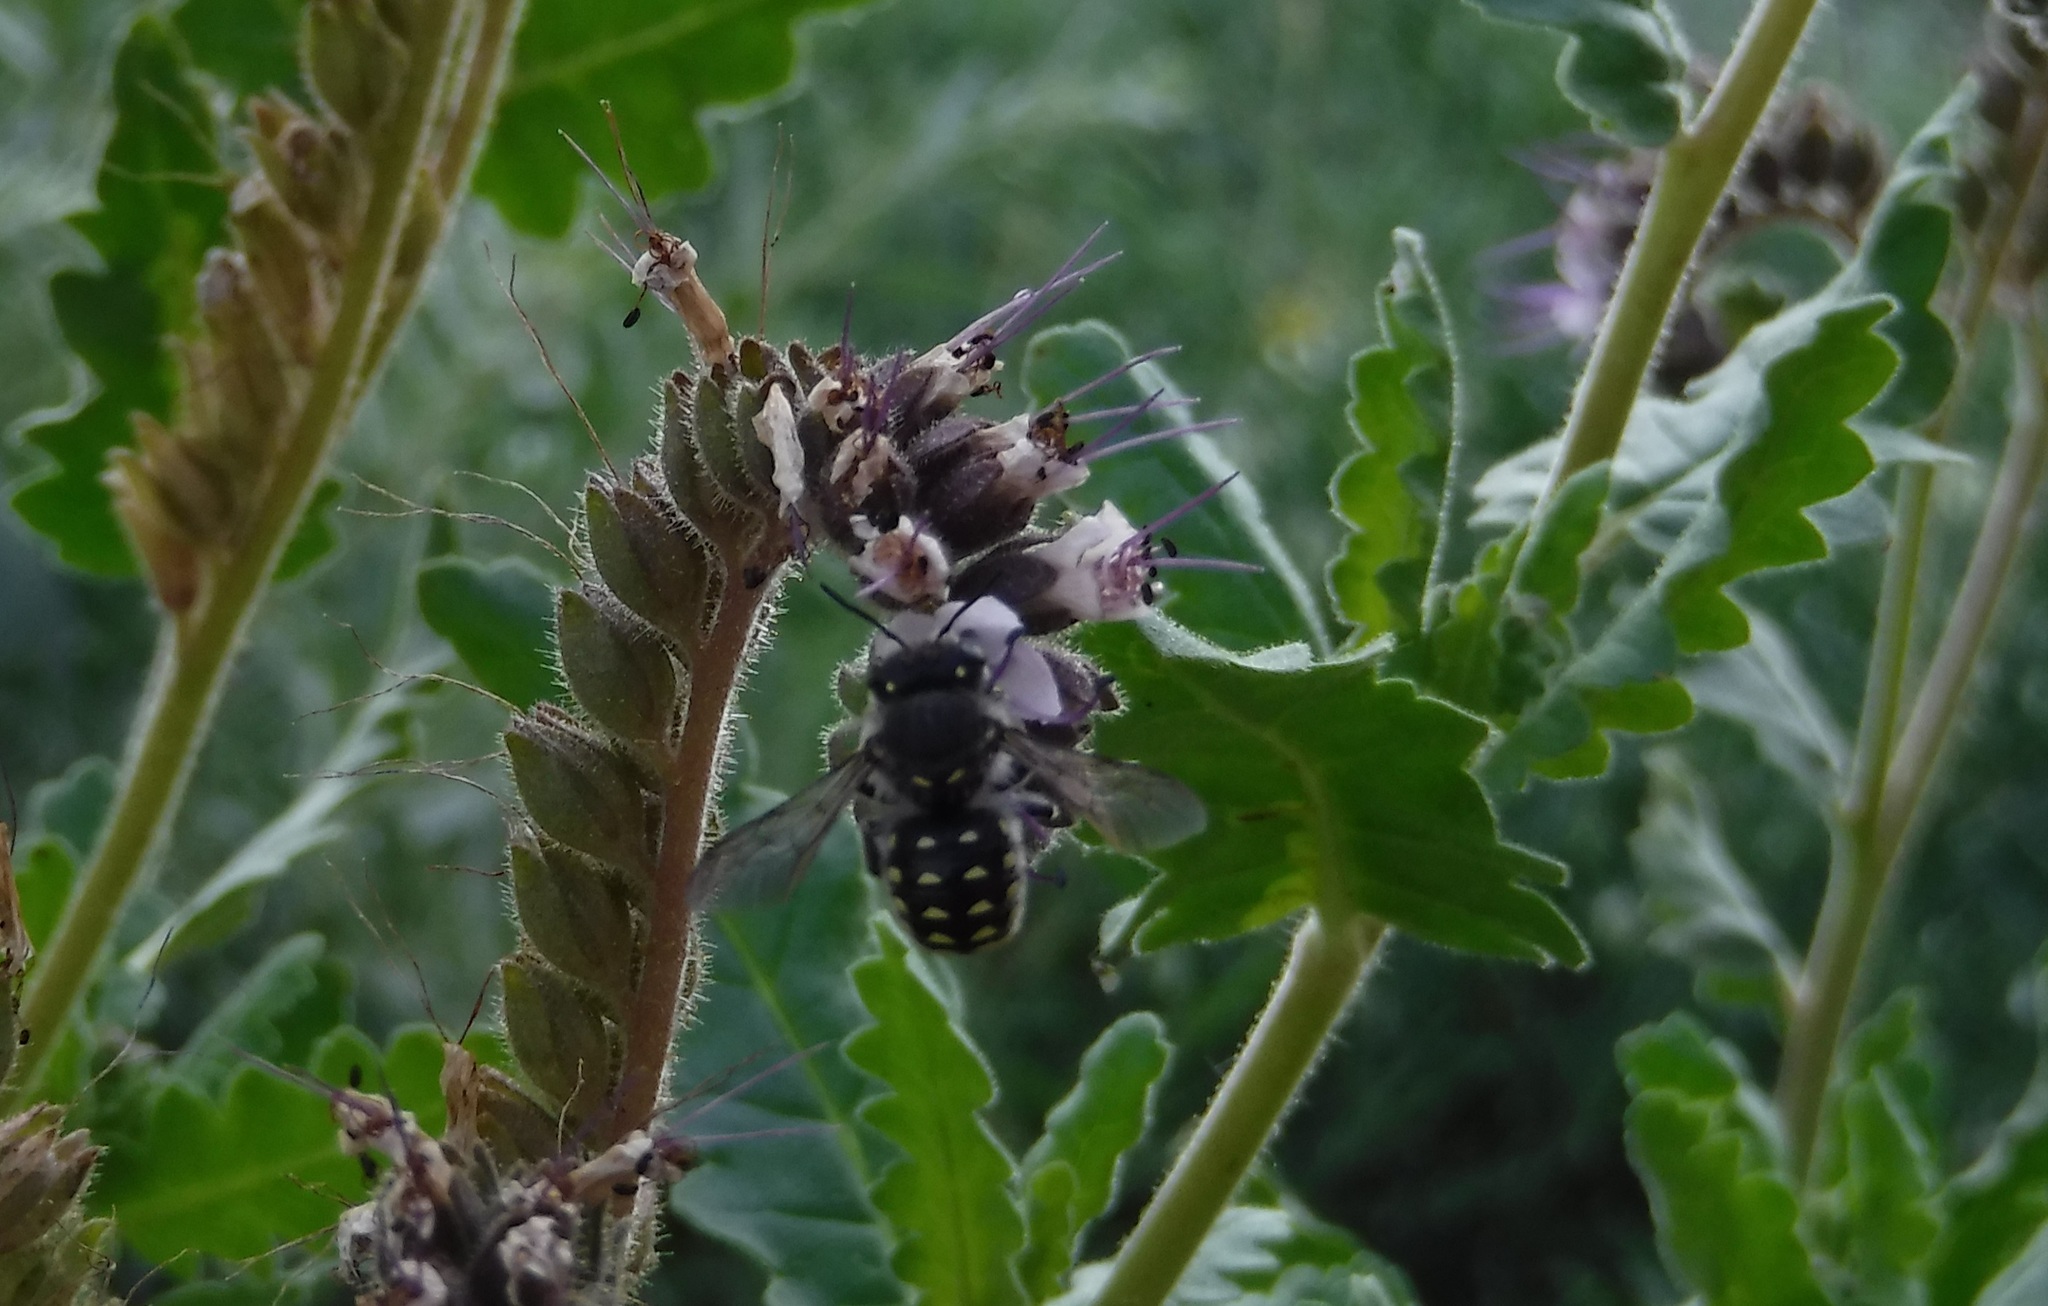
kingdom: Animalia
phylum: Arthropoda
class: Insecta
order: Hymenoptera
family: Megachilidae
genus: Anthidium
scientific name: Anthidium maculosum
